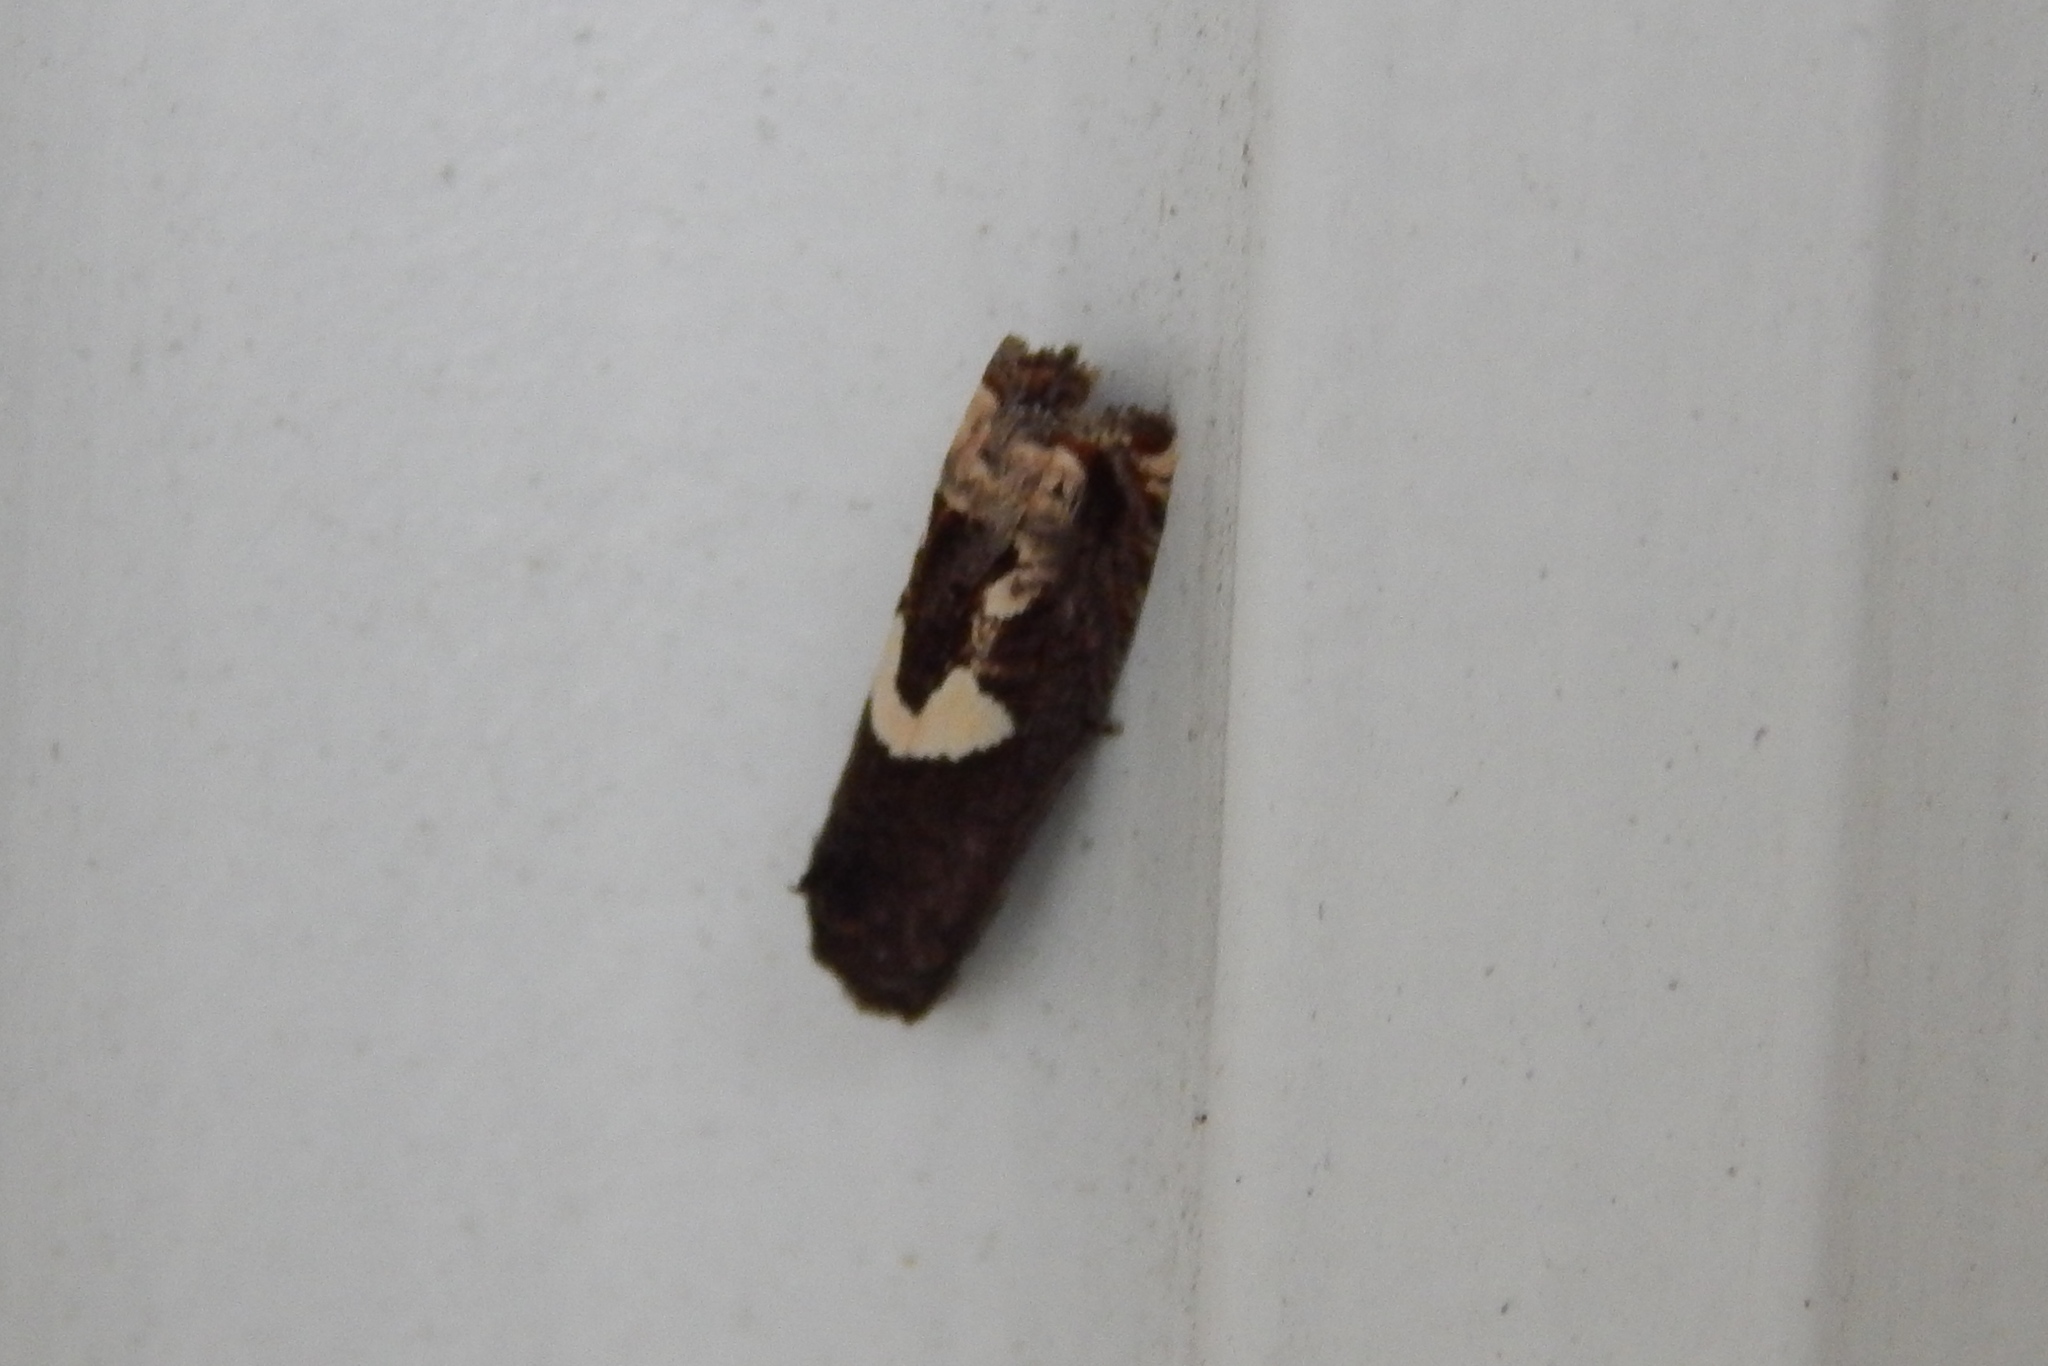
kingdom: Animalia
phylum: Arthropoda
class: Insecta
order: Lepidoptera
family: Tortricidae
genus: Epiblema
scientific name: Epiblema otiosana
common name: Bidens borer moth
